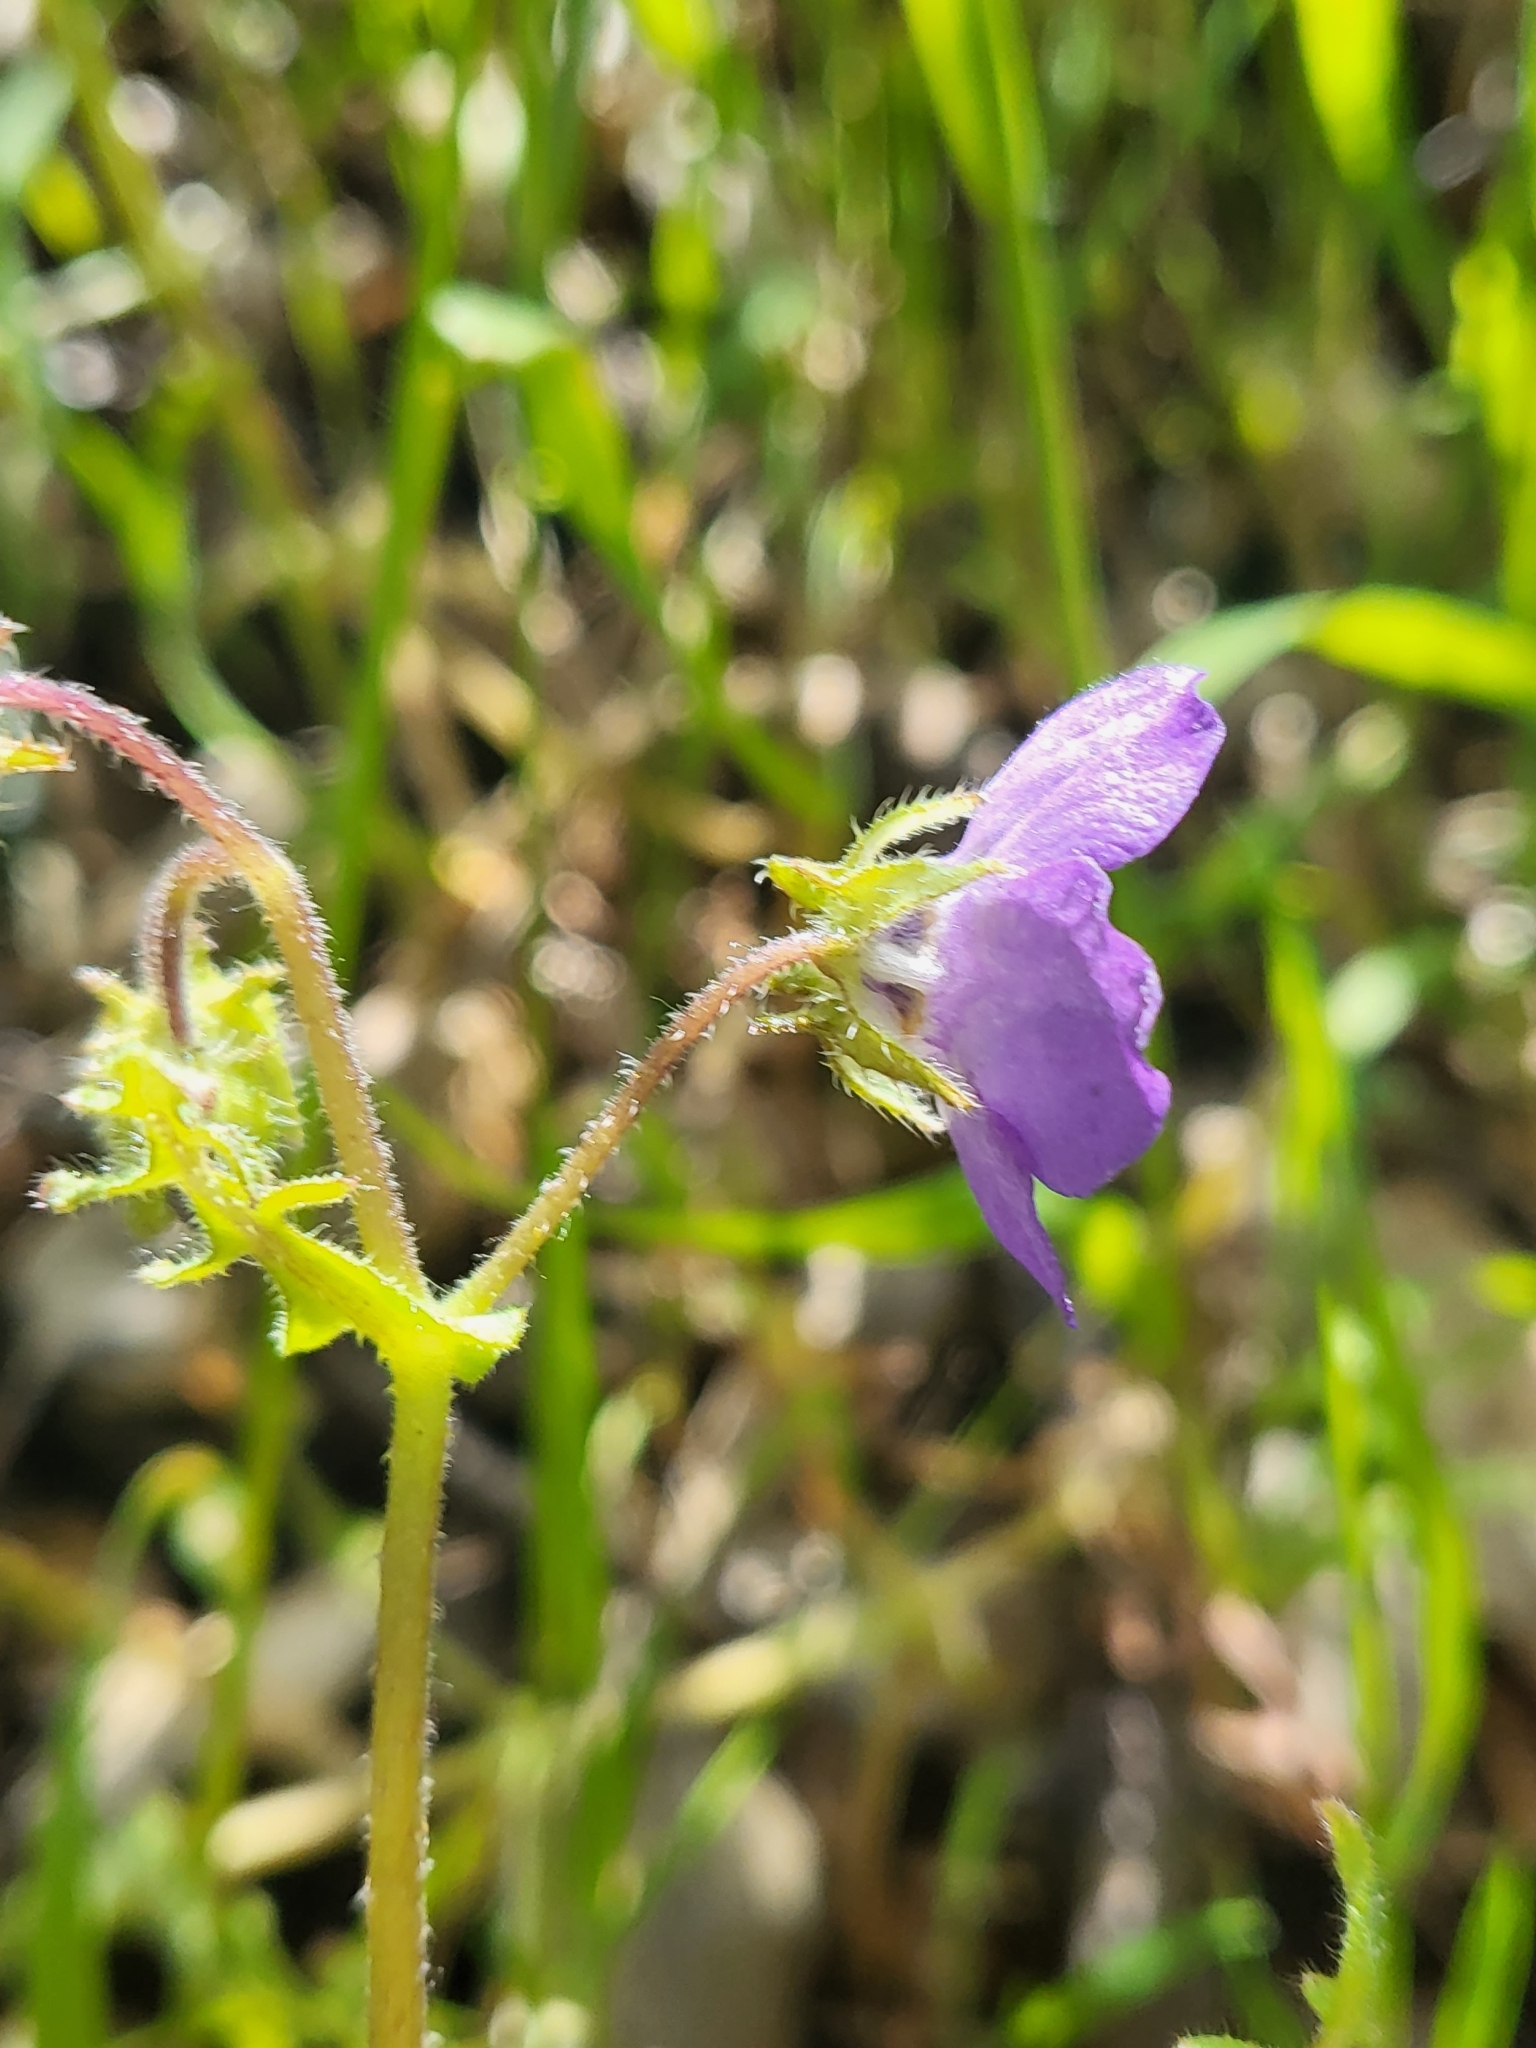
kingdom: Plantae
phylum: Tracheophyta
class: Magnoliopsida
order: Boraginales
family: Hydrophyllaceae
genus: Pholistoma
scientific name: Pholistoma auritum
